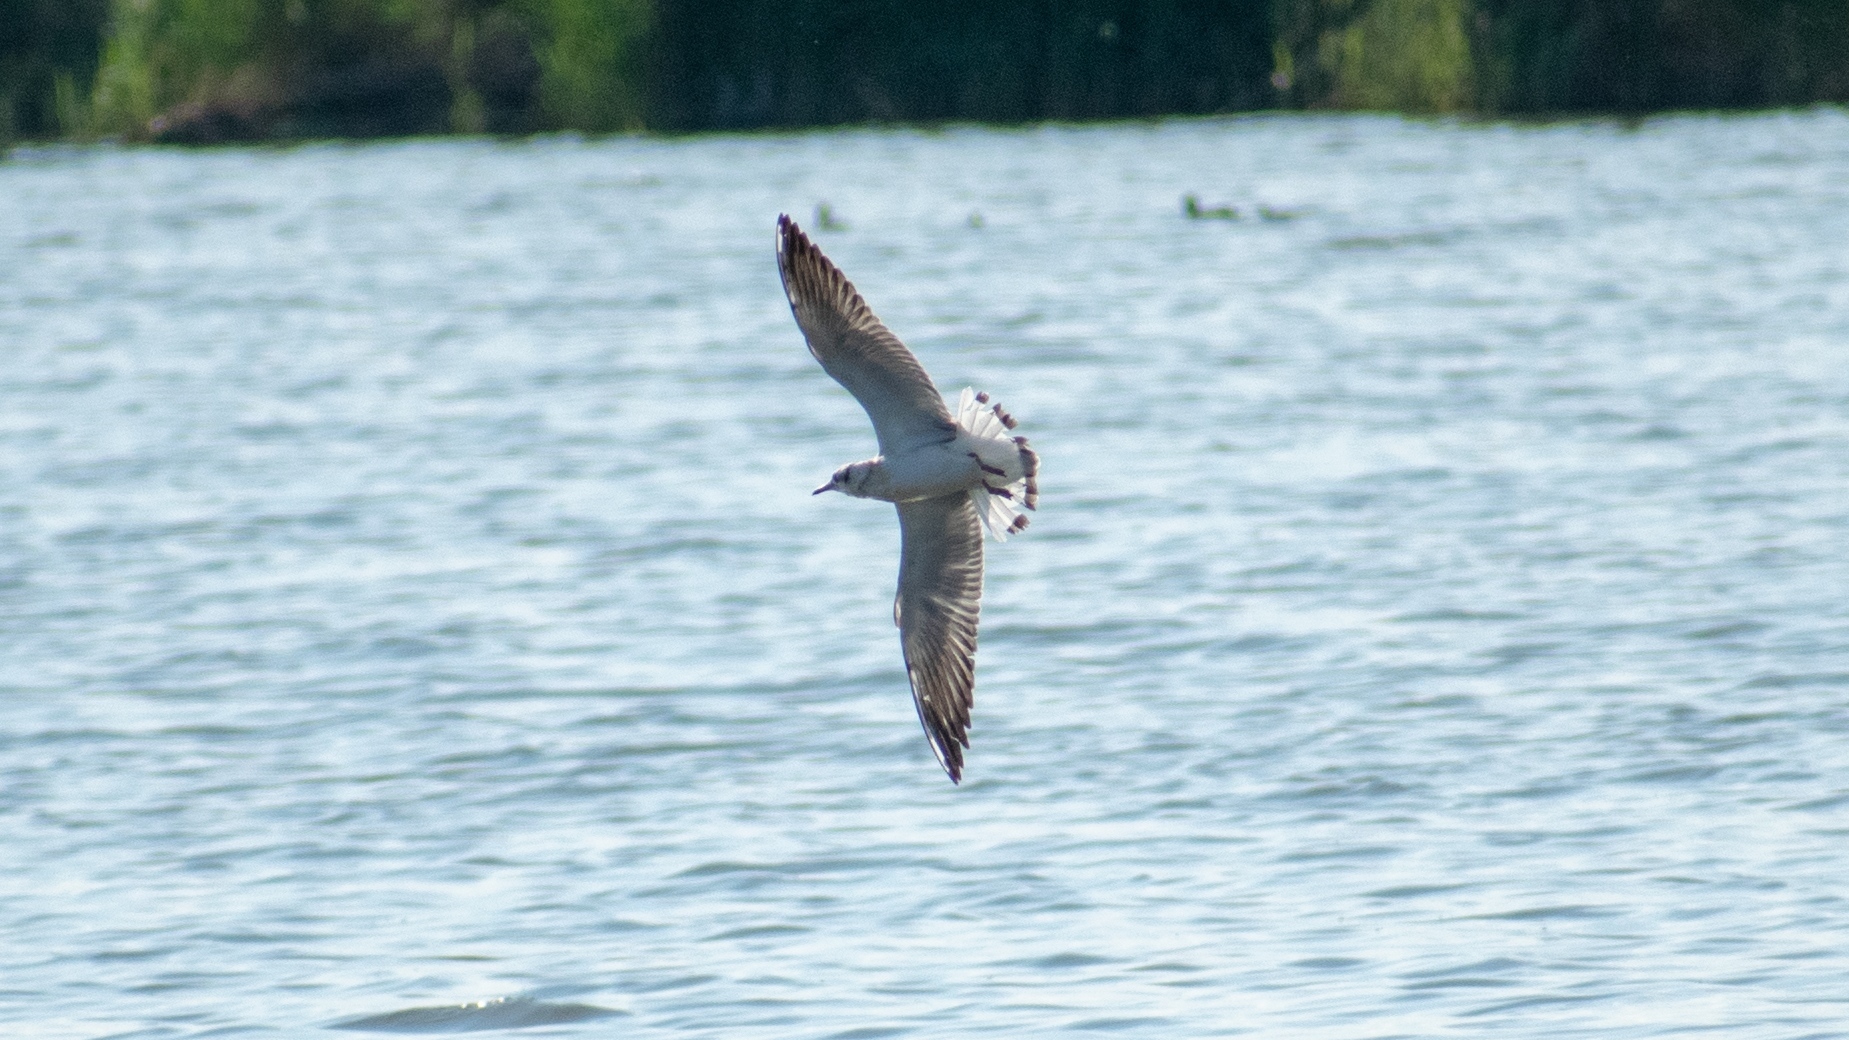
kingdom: Animalia
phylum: Chordata
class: Aves
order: Charadriiformes
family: Laridae
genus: Chroicocephalus
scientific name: Chroicocephalus ridibundus
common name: Black-headed gull
